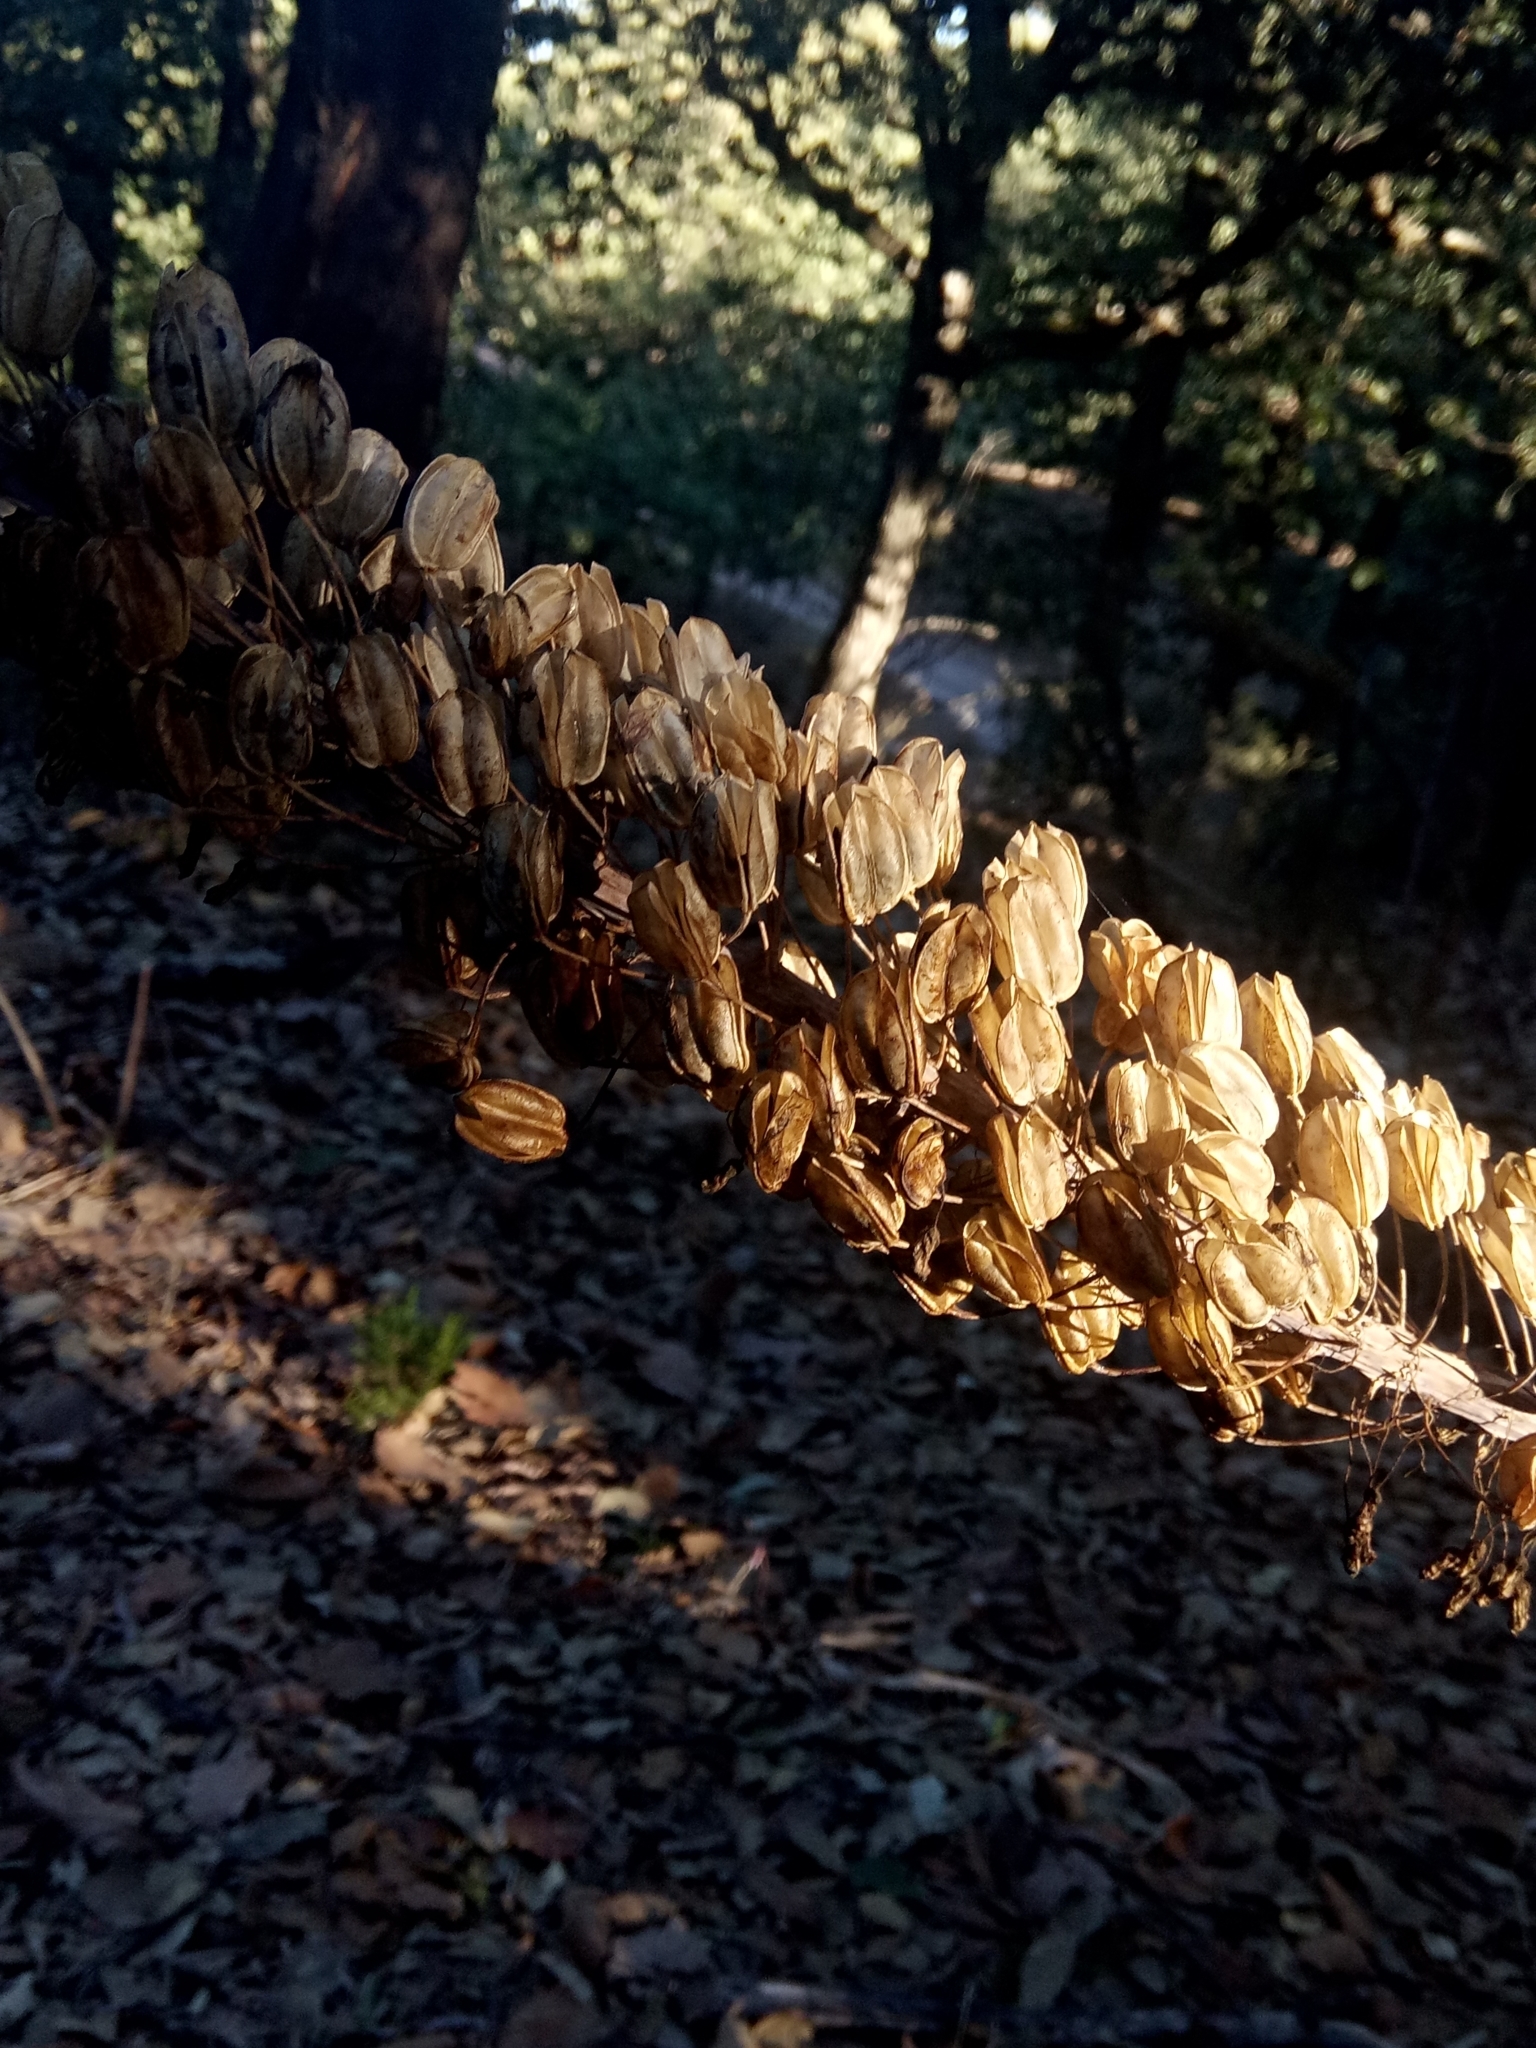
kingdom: Plantae
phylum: Tracheophyta
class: Liliopsida
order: Asparagales
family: Asparagaceae
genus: Drimia
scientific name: Drimia numidica
